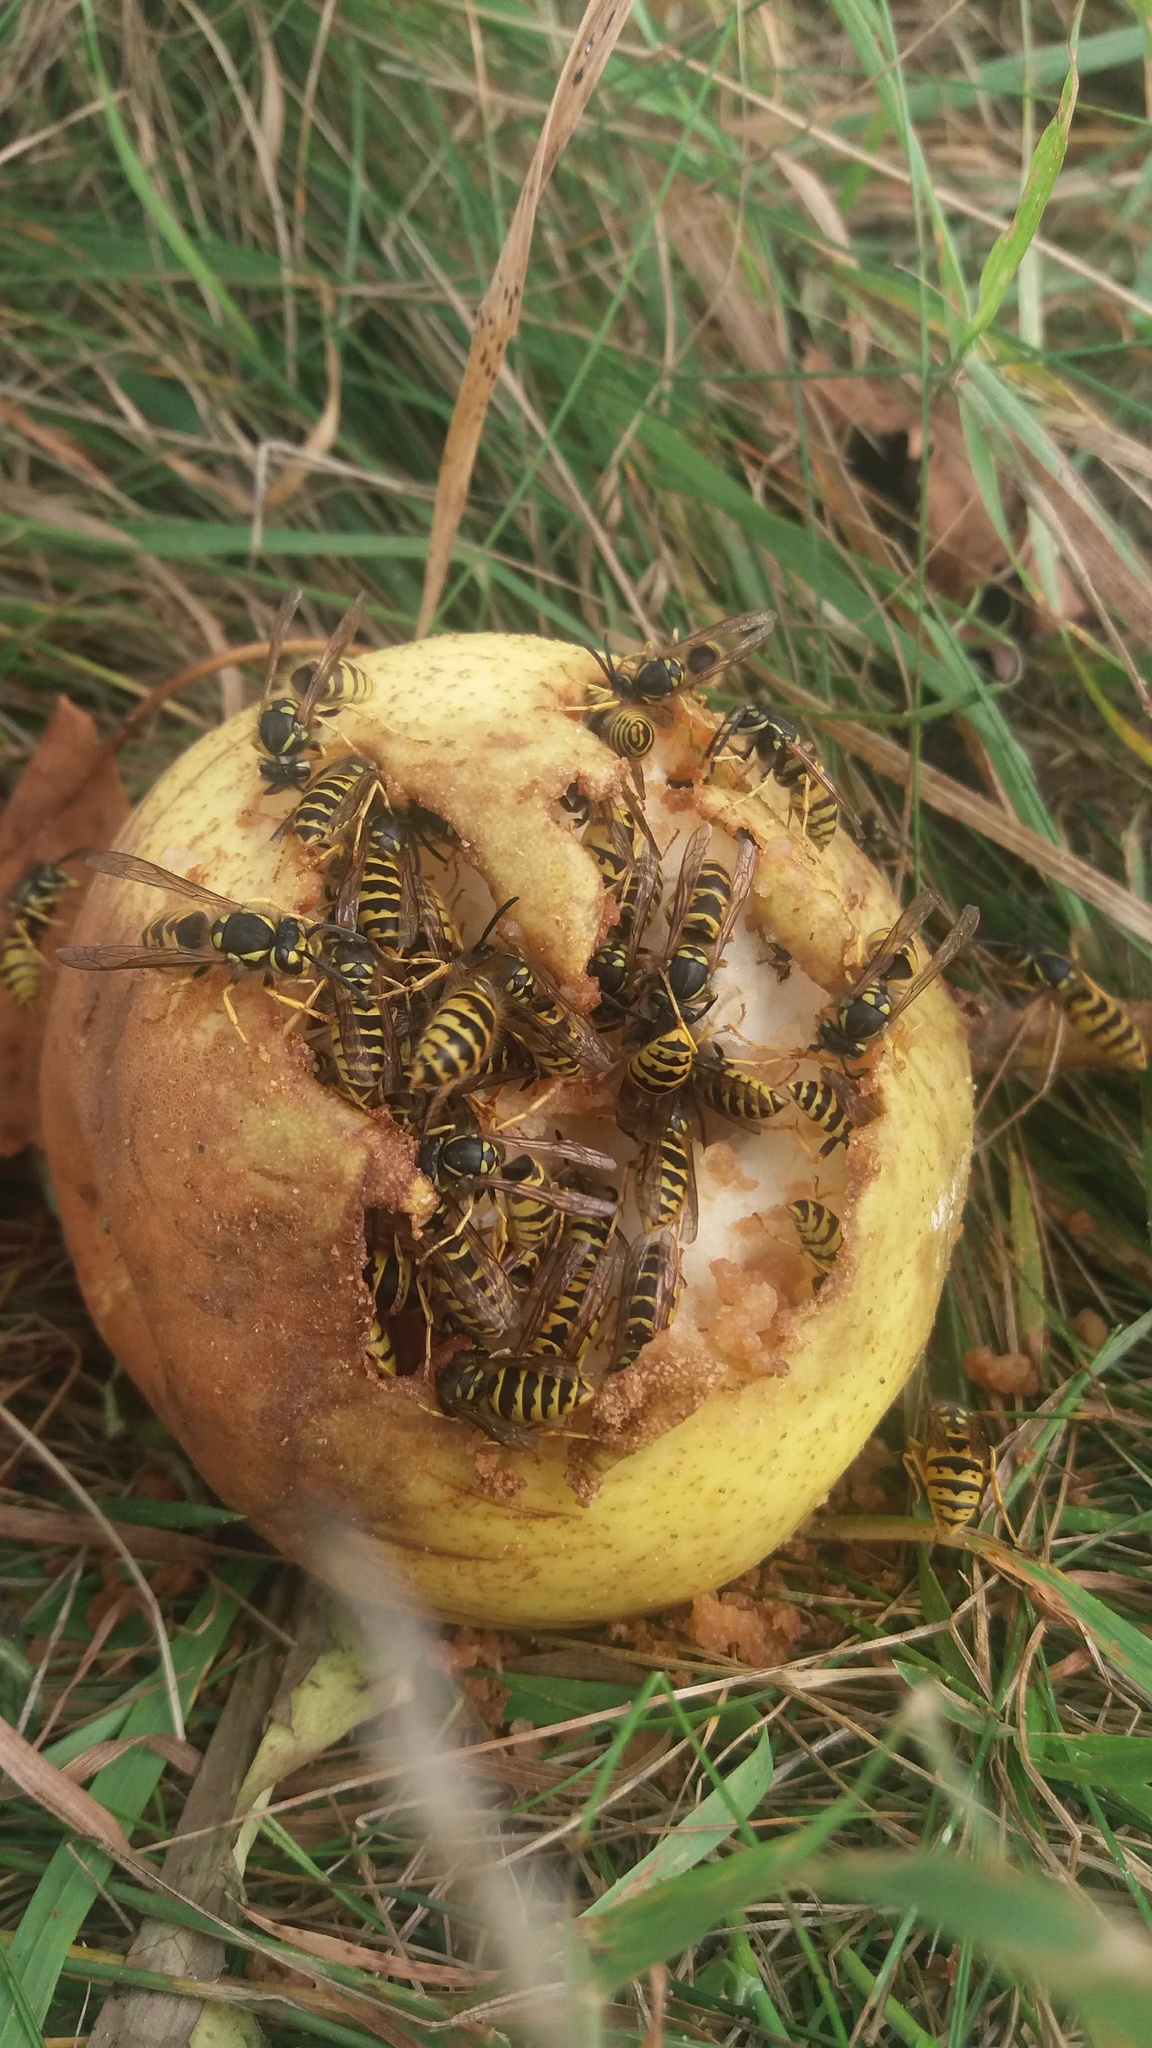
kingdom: Animalia
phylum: Arthropoda
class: Insecta
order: Hymenoptera
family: Vespidae
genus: Vespula
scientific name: Vespula vulgaris
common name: Common wasp
